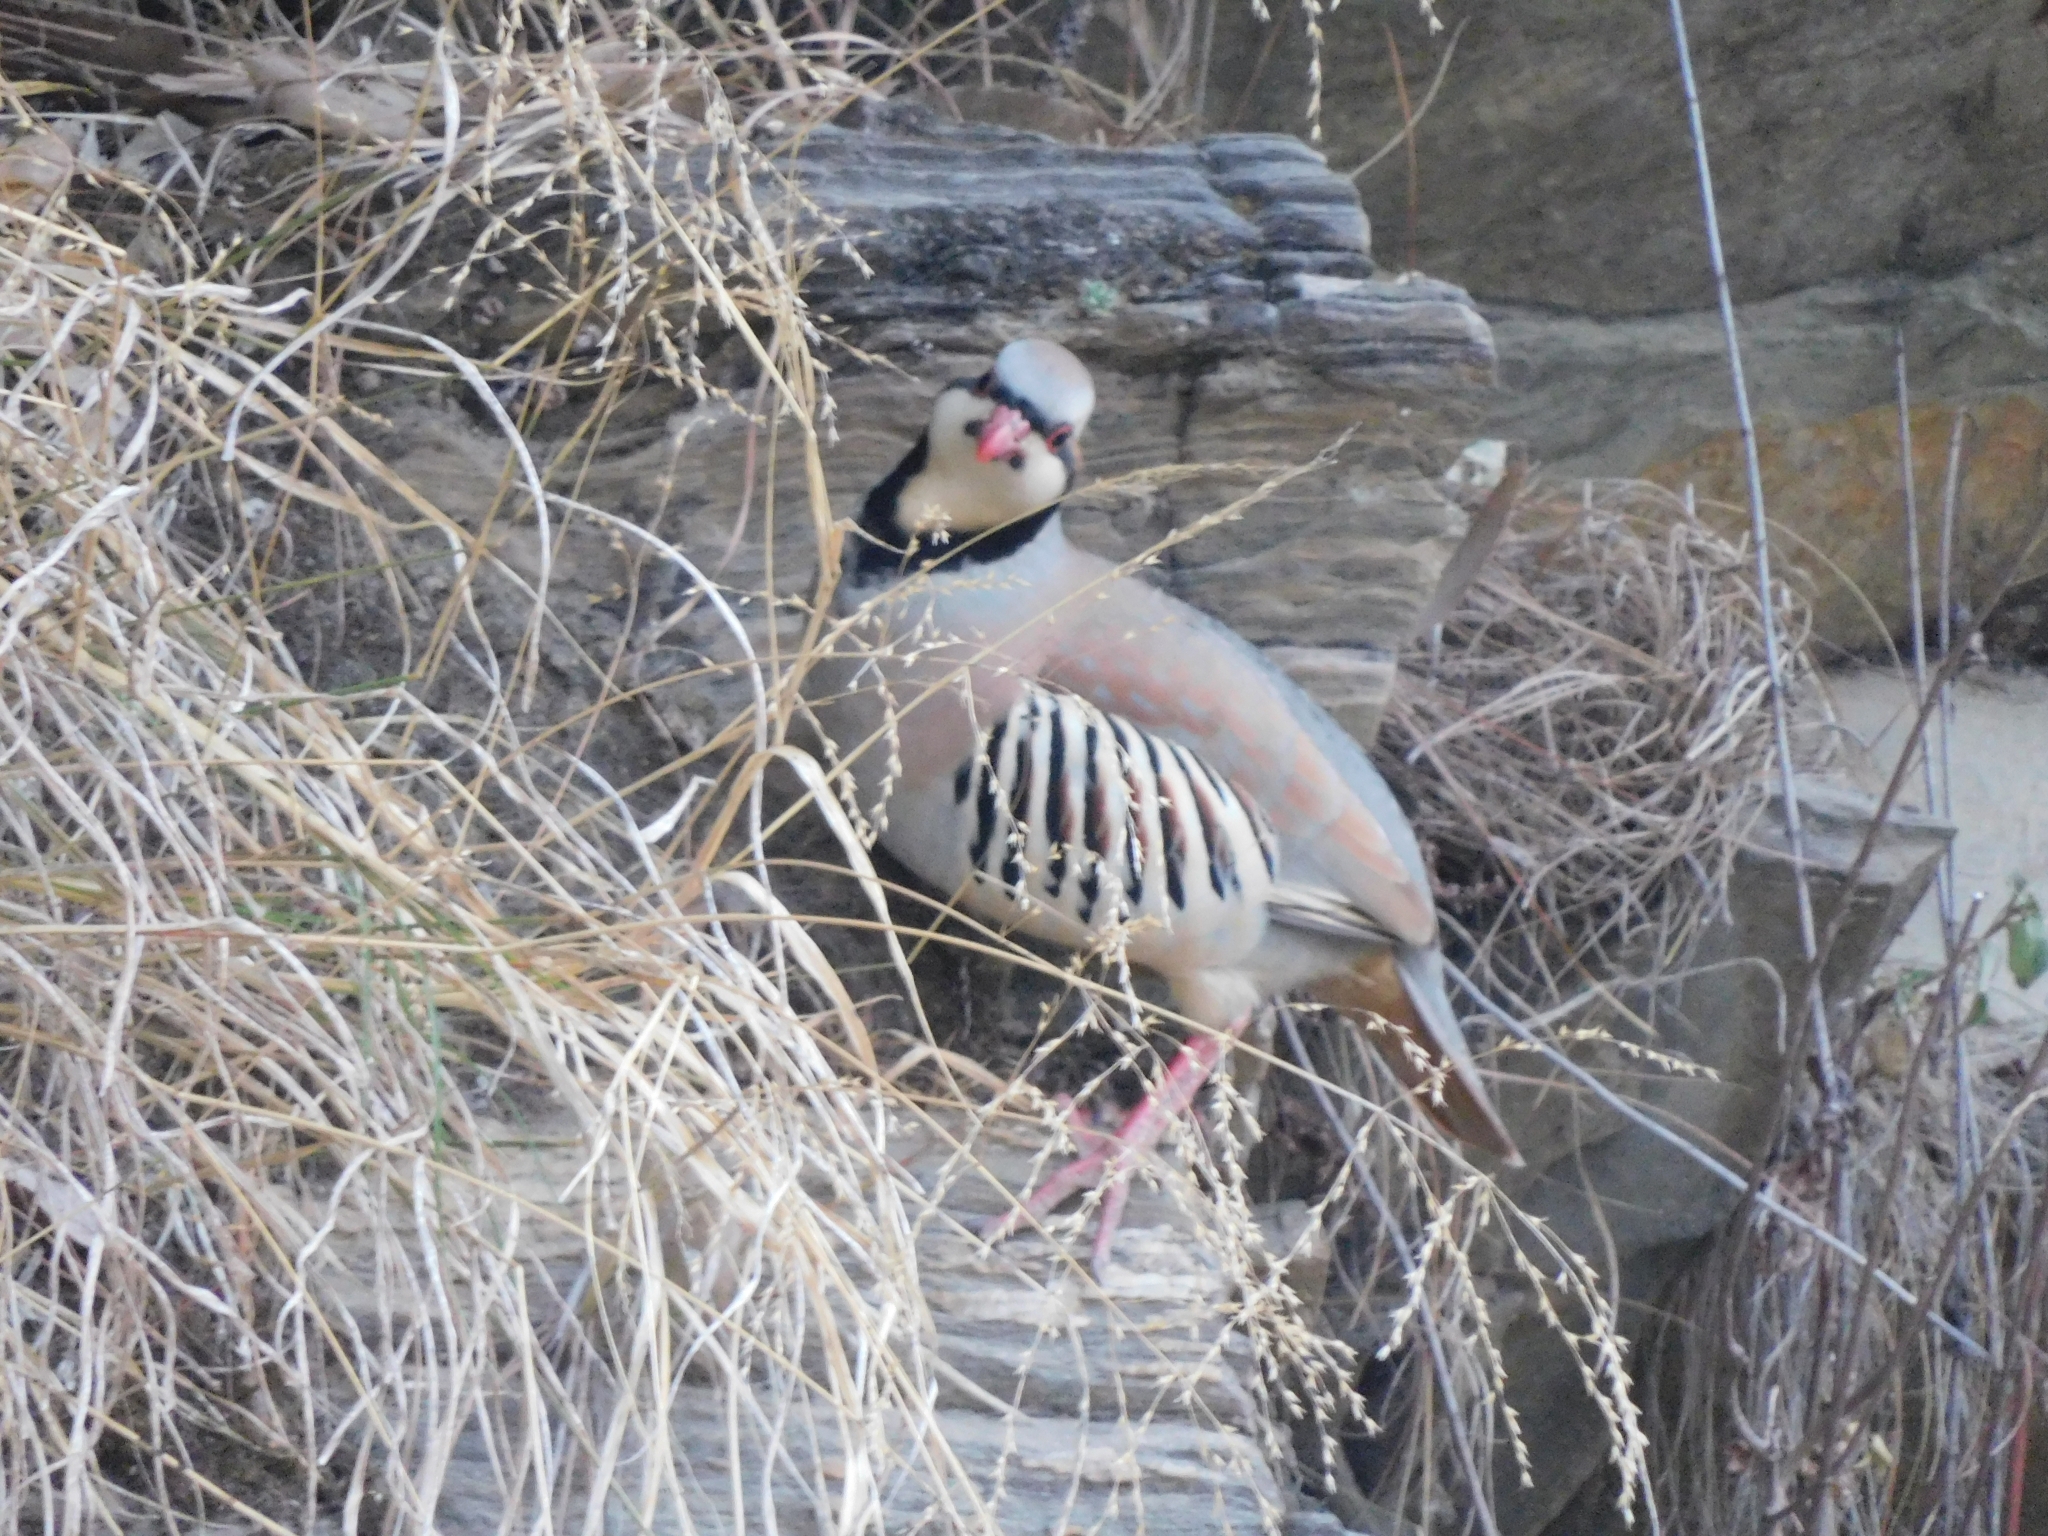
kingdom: Animalia
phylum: Chordata
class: Aves
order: Galliformes
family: Phasianidae
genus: Alectoris
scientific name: Alectoris chukar
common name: Chukar
